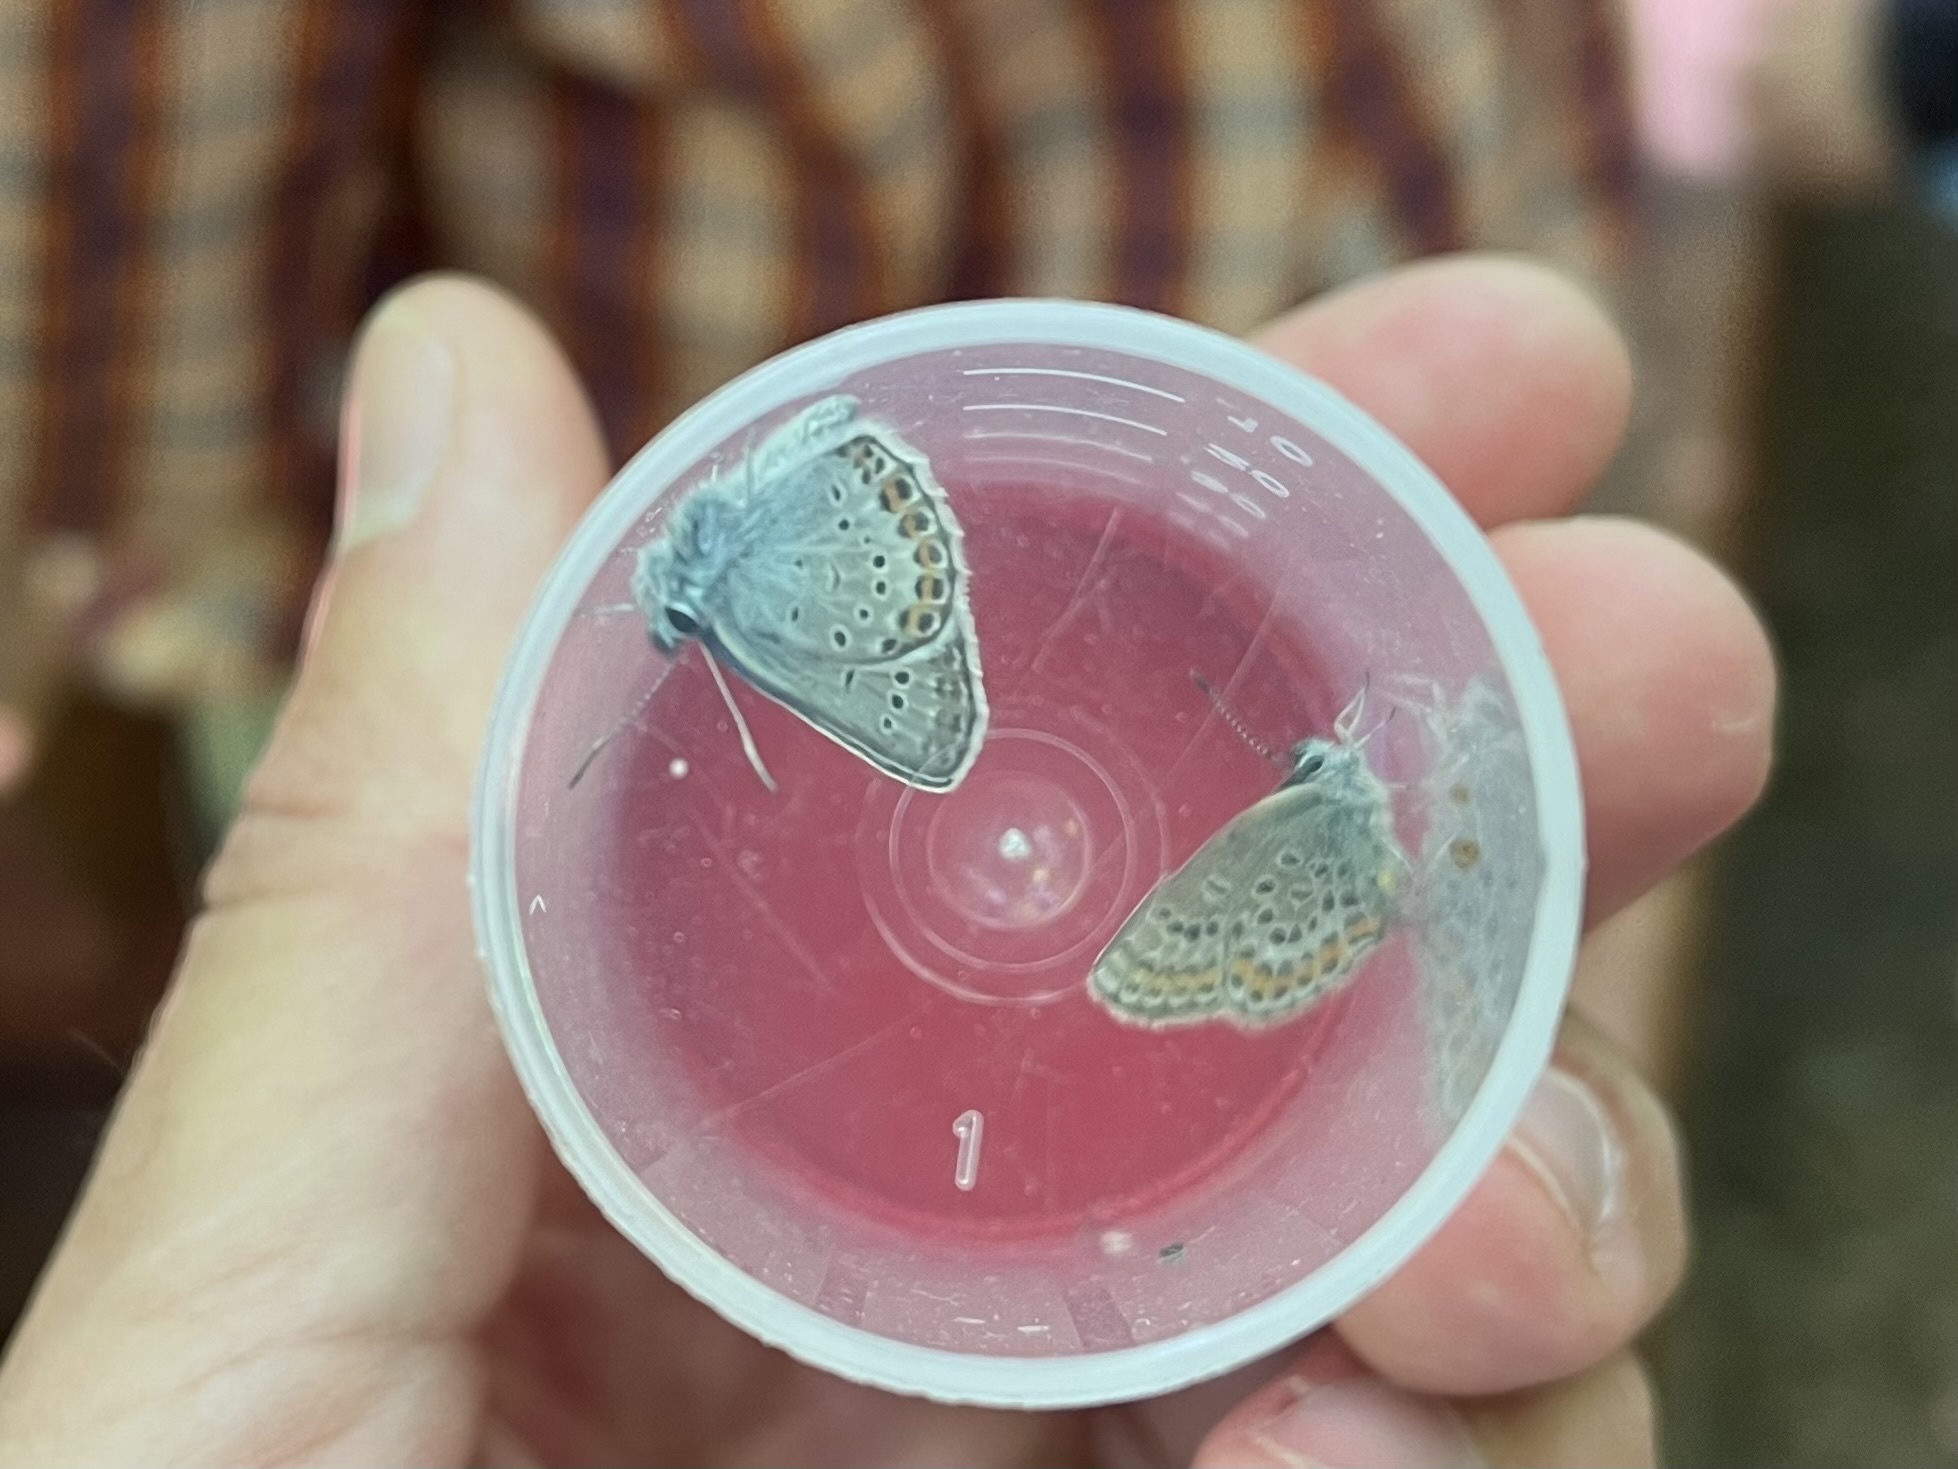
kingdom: Animalia
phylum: Arthropoda
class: Insecta
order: Lepidoptera
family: Lycaenidae
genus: Plebejus
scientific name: Plebejus argus
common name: Silver-studded blue
